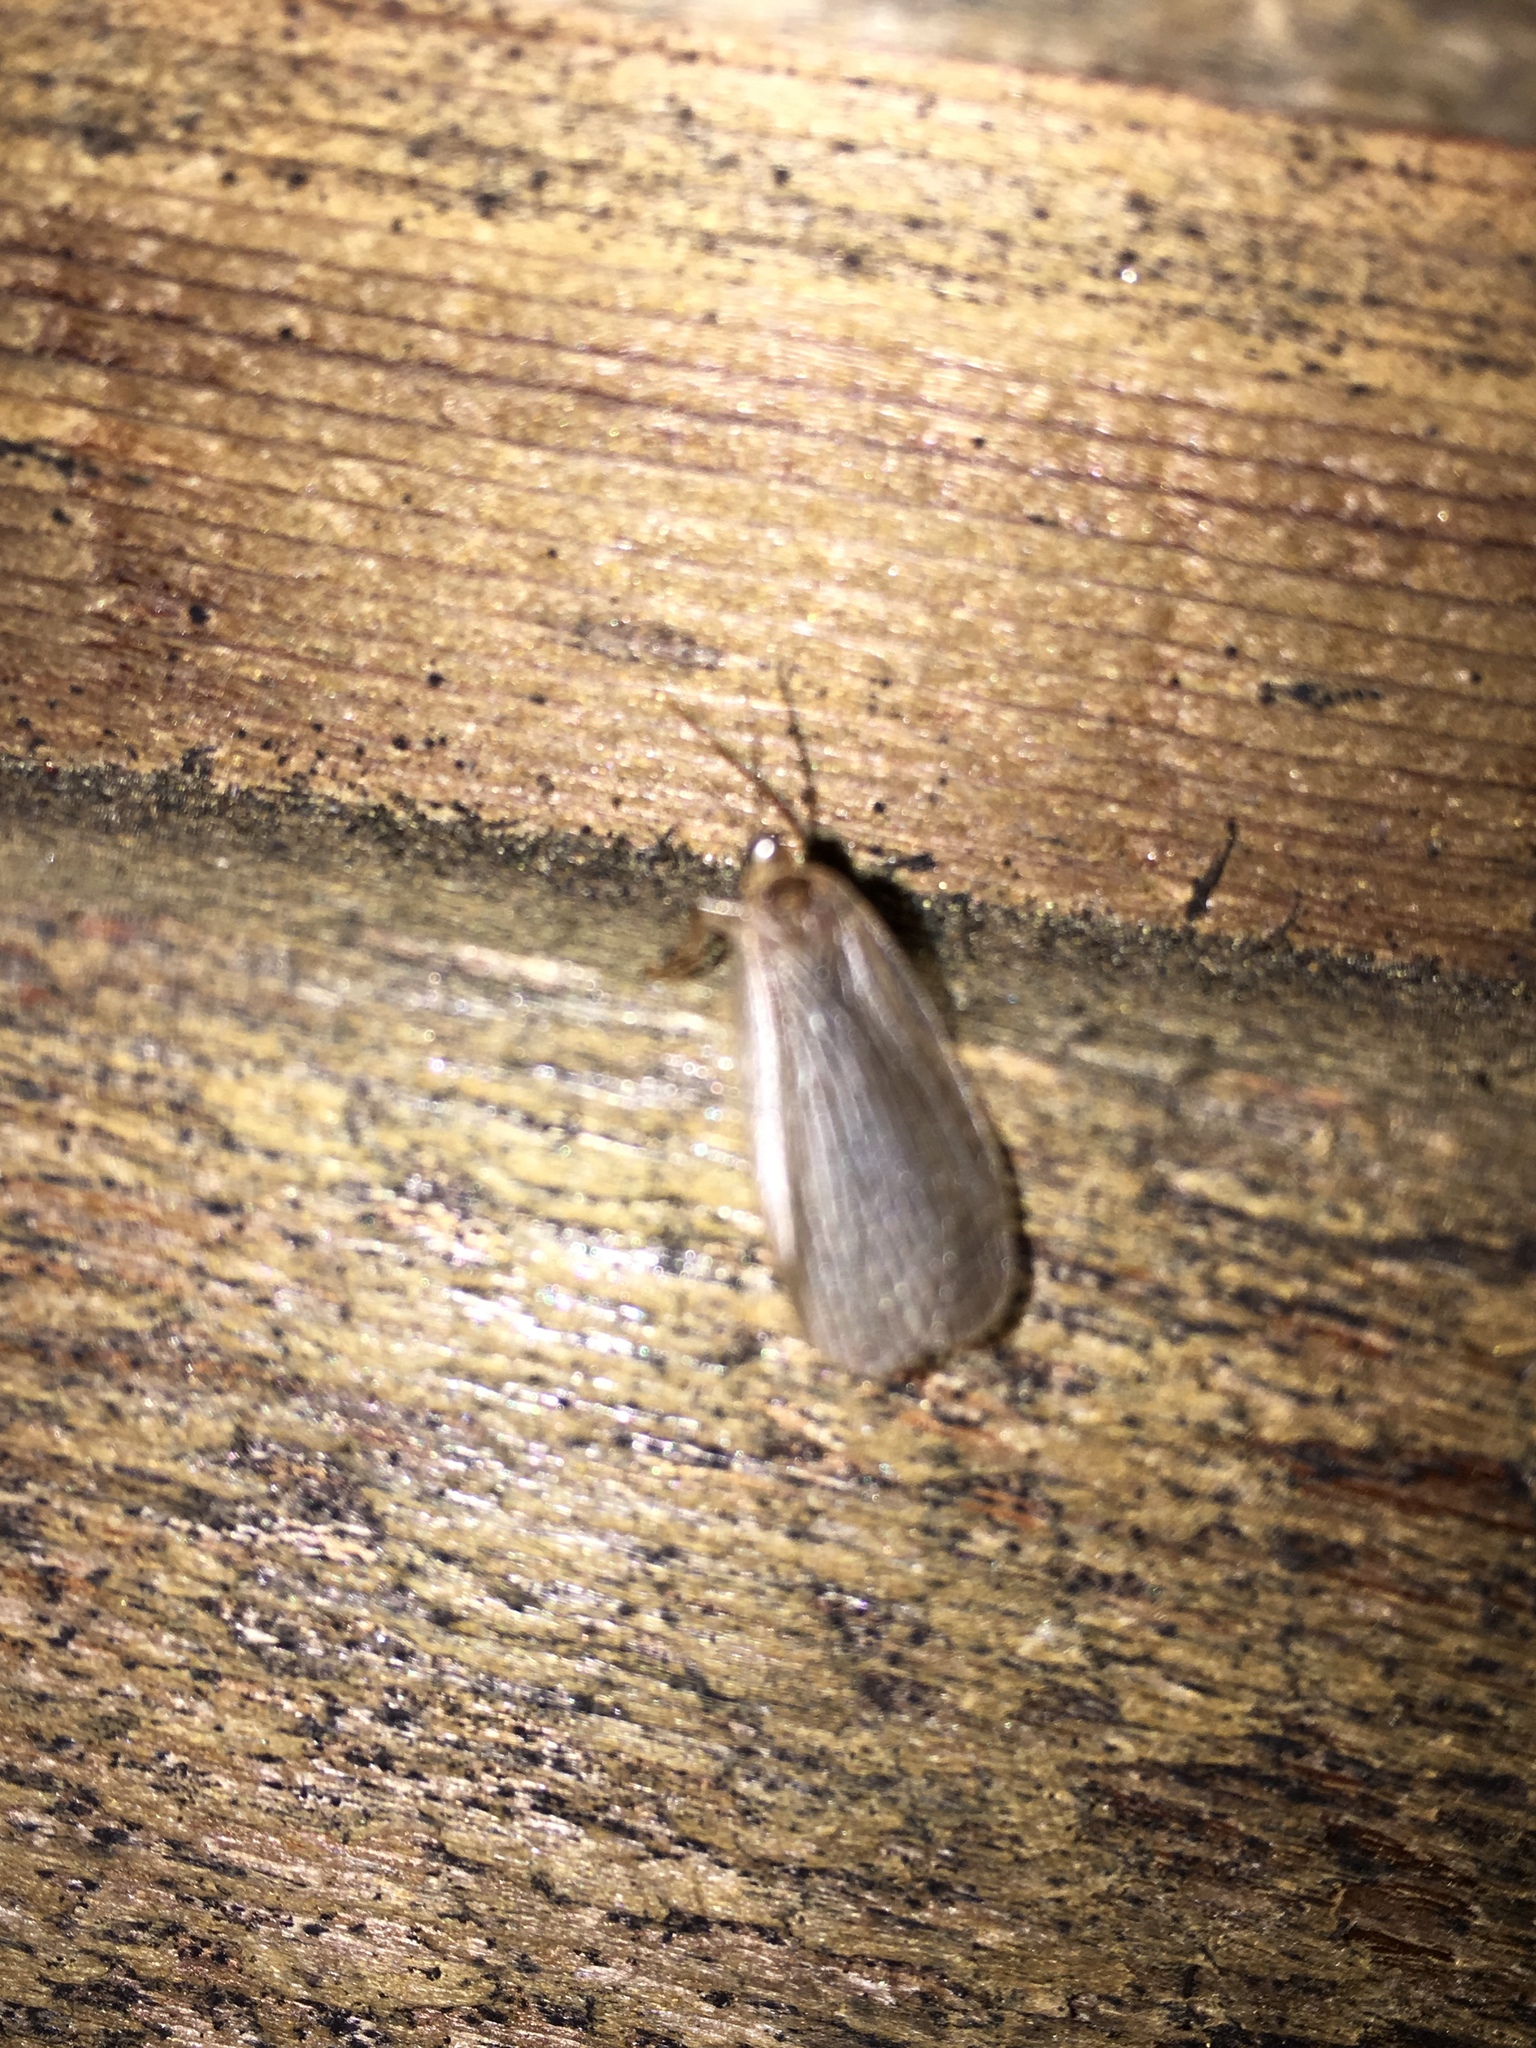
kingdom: Animalia
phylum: Arthropoda
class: Insecta
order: Mecoptera
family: Meropeidae
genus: Merope
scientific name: Merope tuber
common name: Forcepfly
